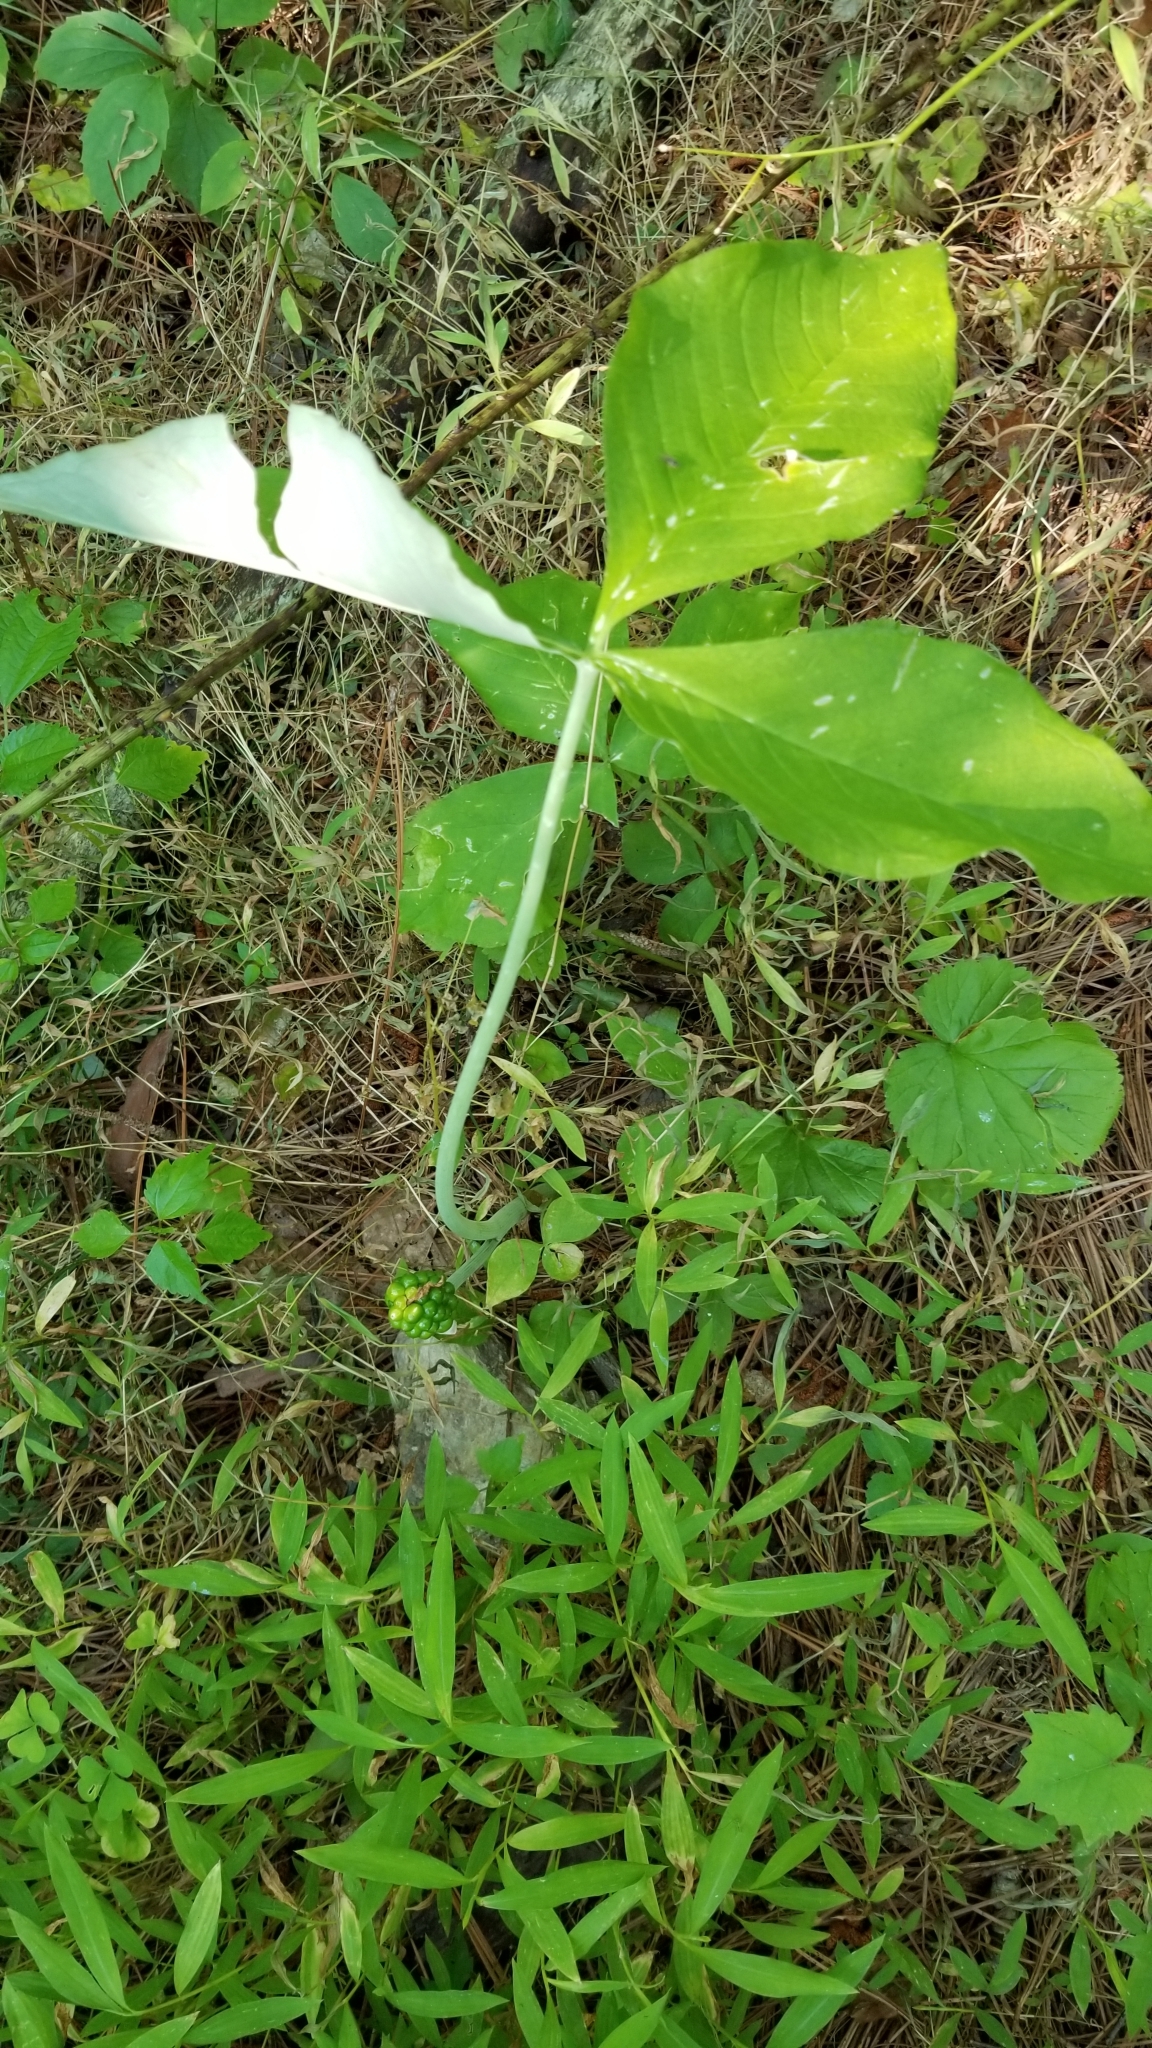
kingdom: Plantae
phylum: Tracheophyta
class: Liliopsida
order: Alismatales
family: Araceae
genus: Arisaema
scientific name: Arisaema triphyllum
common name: Jack-in-the-pulpit
